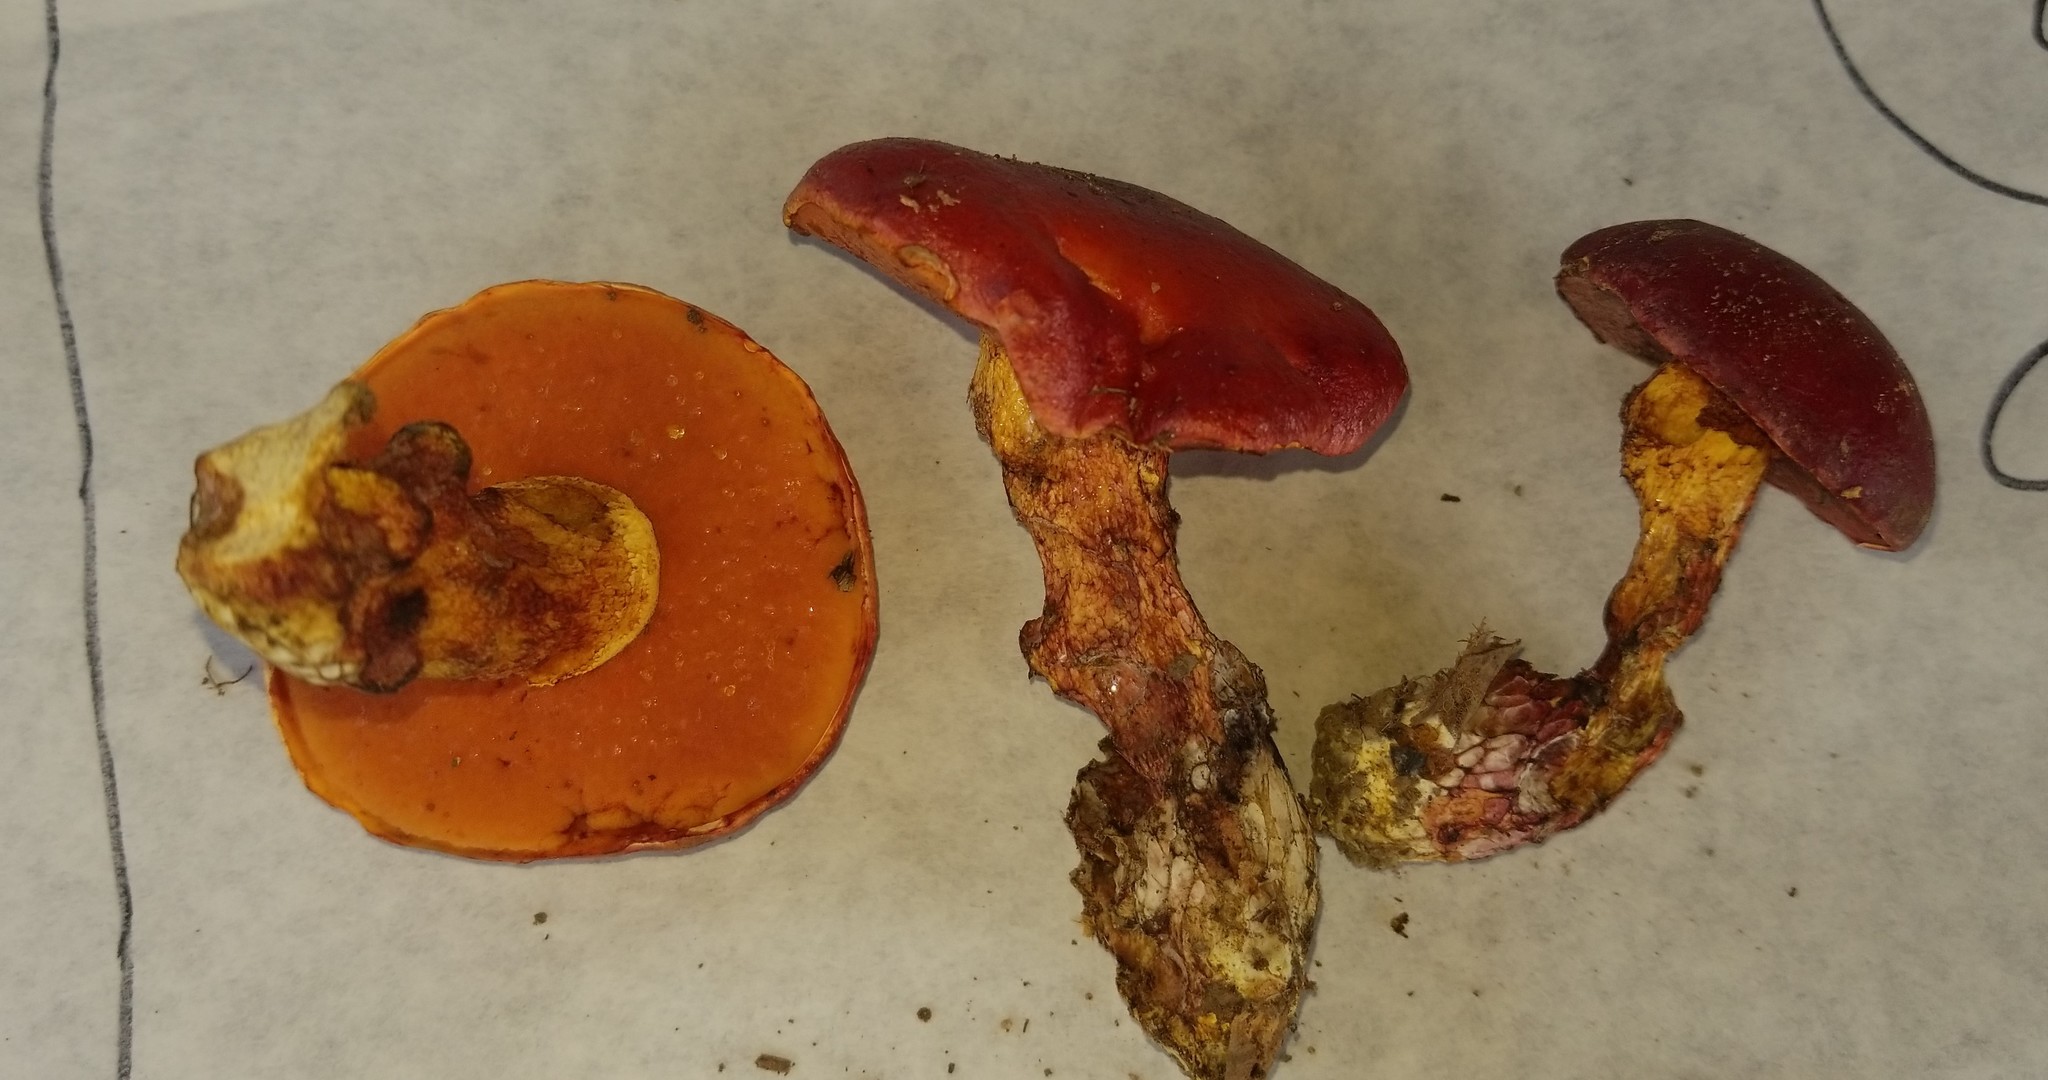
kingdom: Fungi
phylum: Basidiomycota
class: Agaricomycetes
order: Boletales
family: Boletaceae
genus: Butyriboletus
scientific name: Butyriboletus frostii
